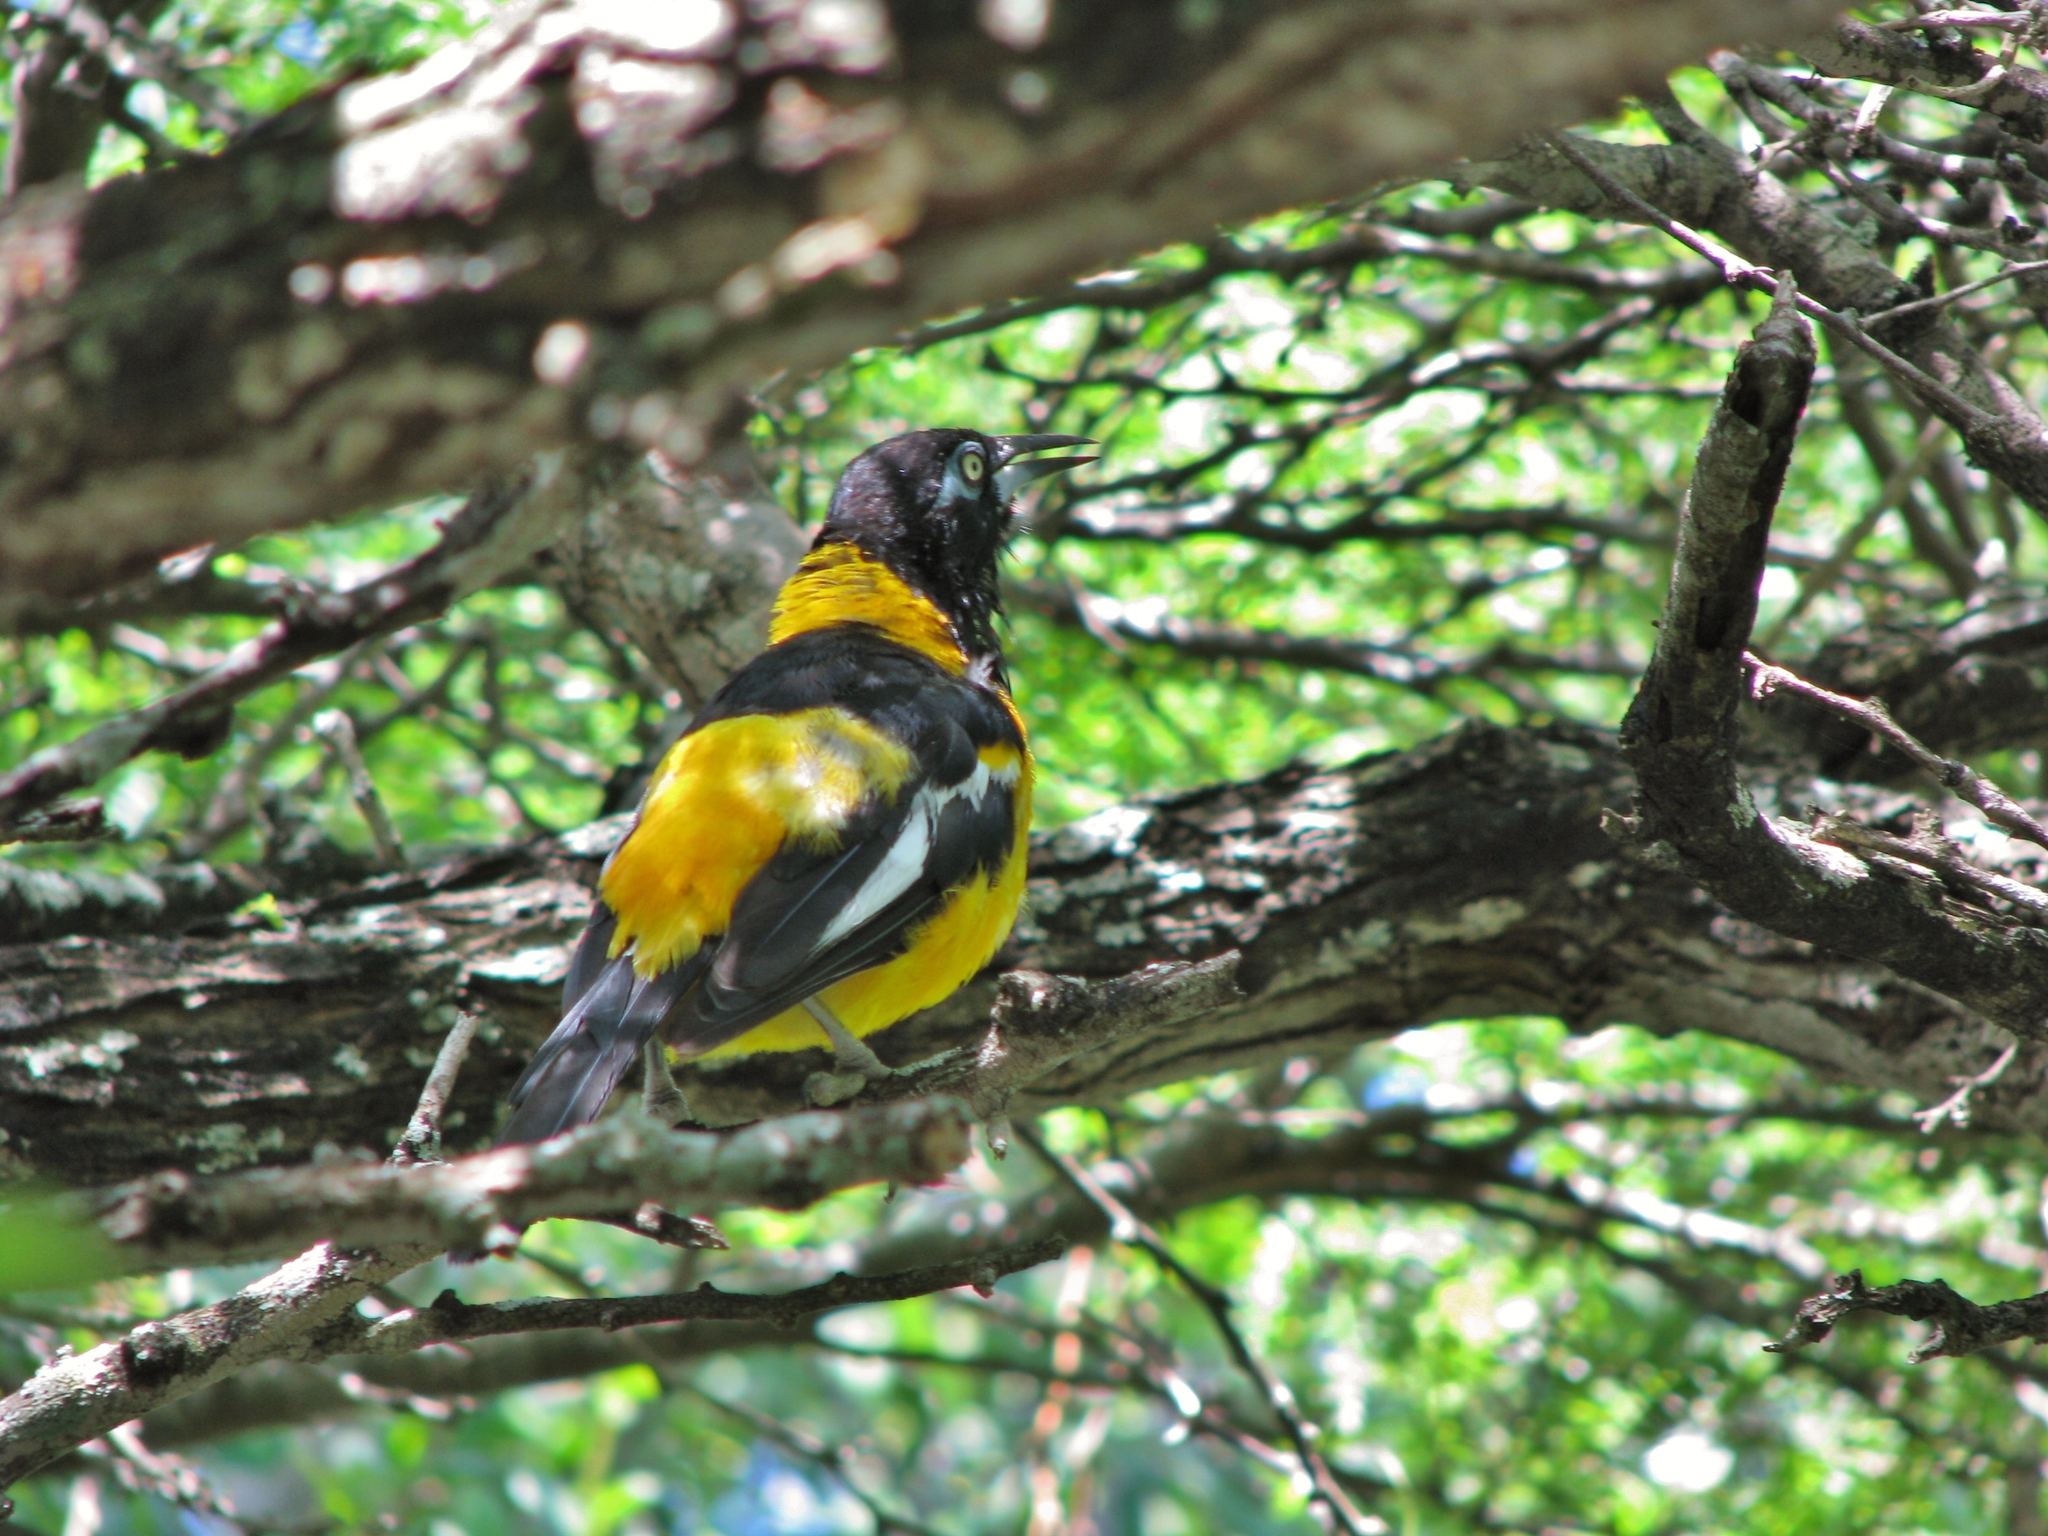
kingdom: Animalia
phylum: Chordata
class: Aves
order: Passeriformes
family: Icteridae
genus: Icterus
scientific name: Icterus icterus
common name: Venezuelan troupial
